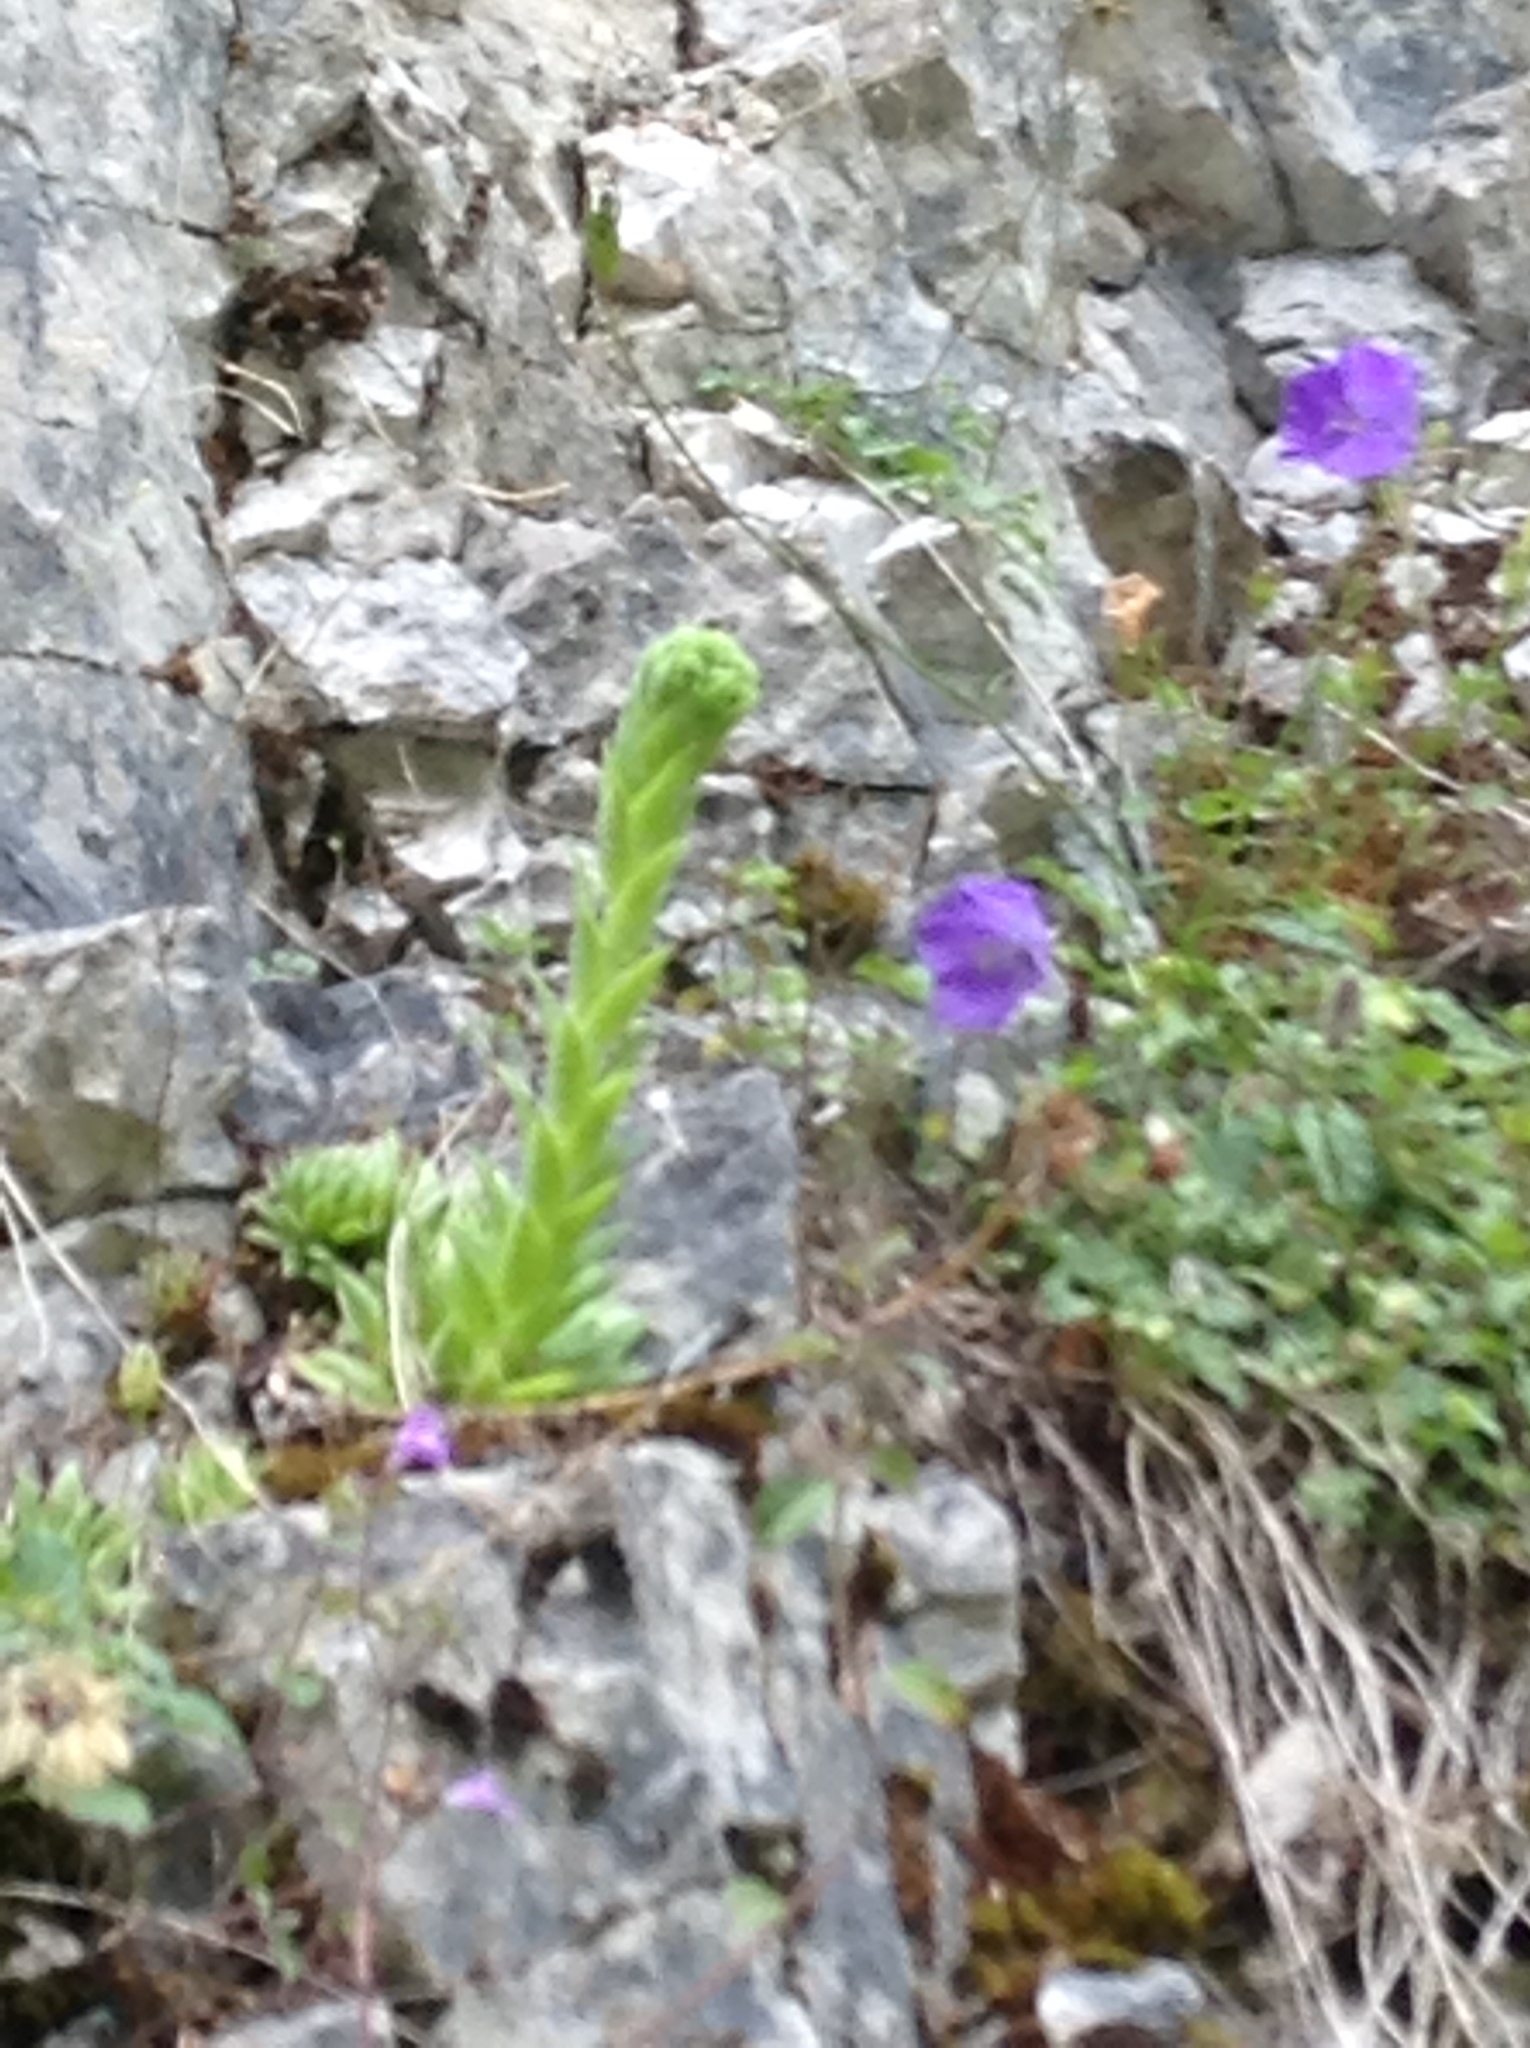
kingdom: Plantae
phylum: Tracheophyta
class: Magnoliopsida
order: Saxifragales
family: Crassulaceae
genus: Sempervivum
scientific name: Sempervivum globiferum
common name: Rolling hen-and-chicks
